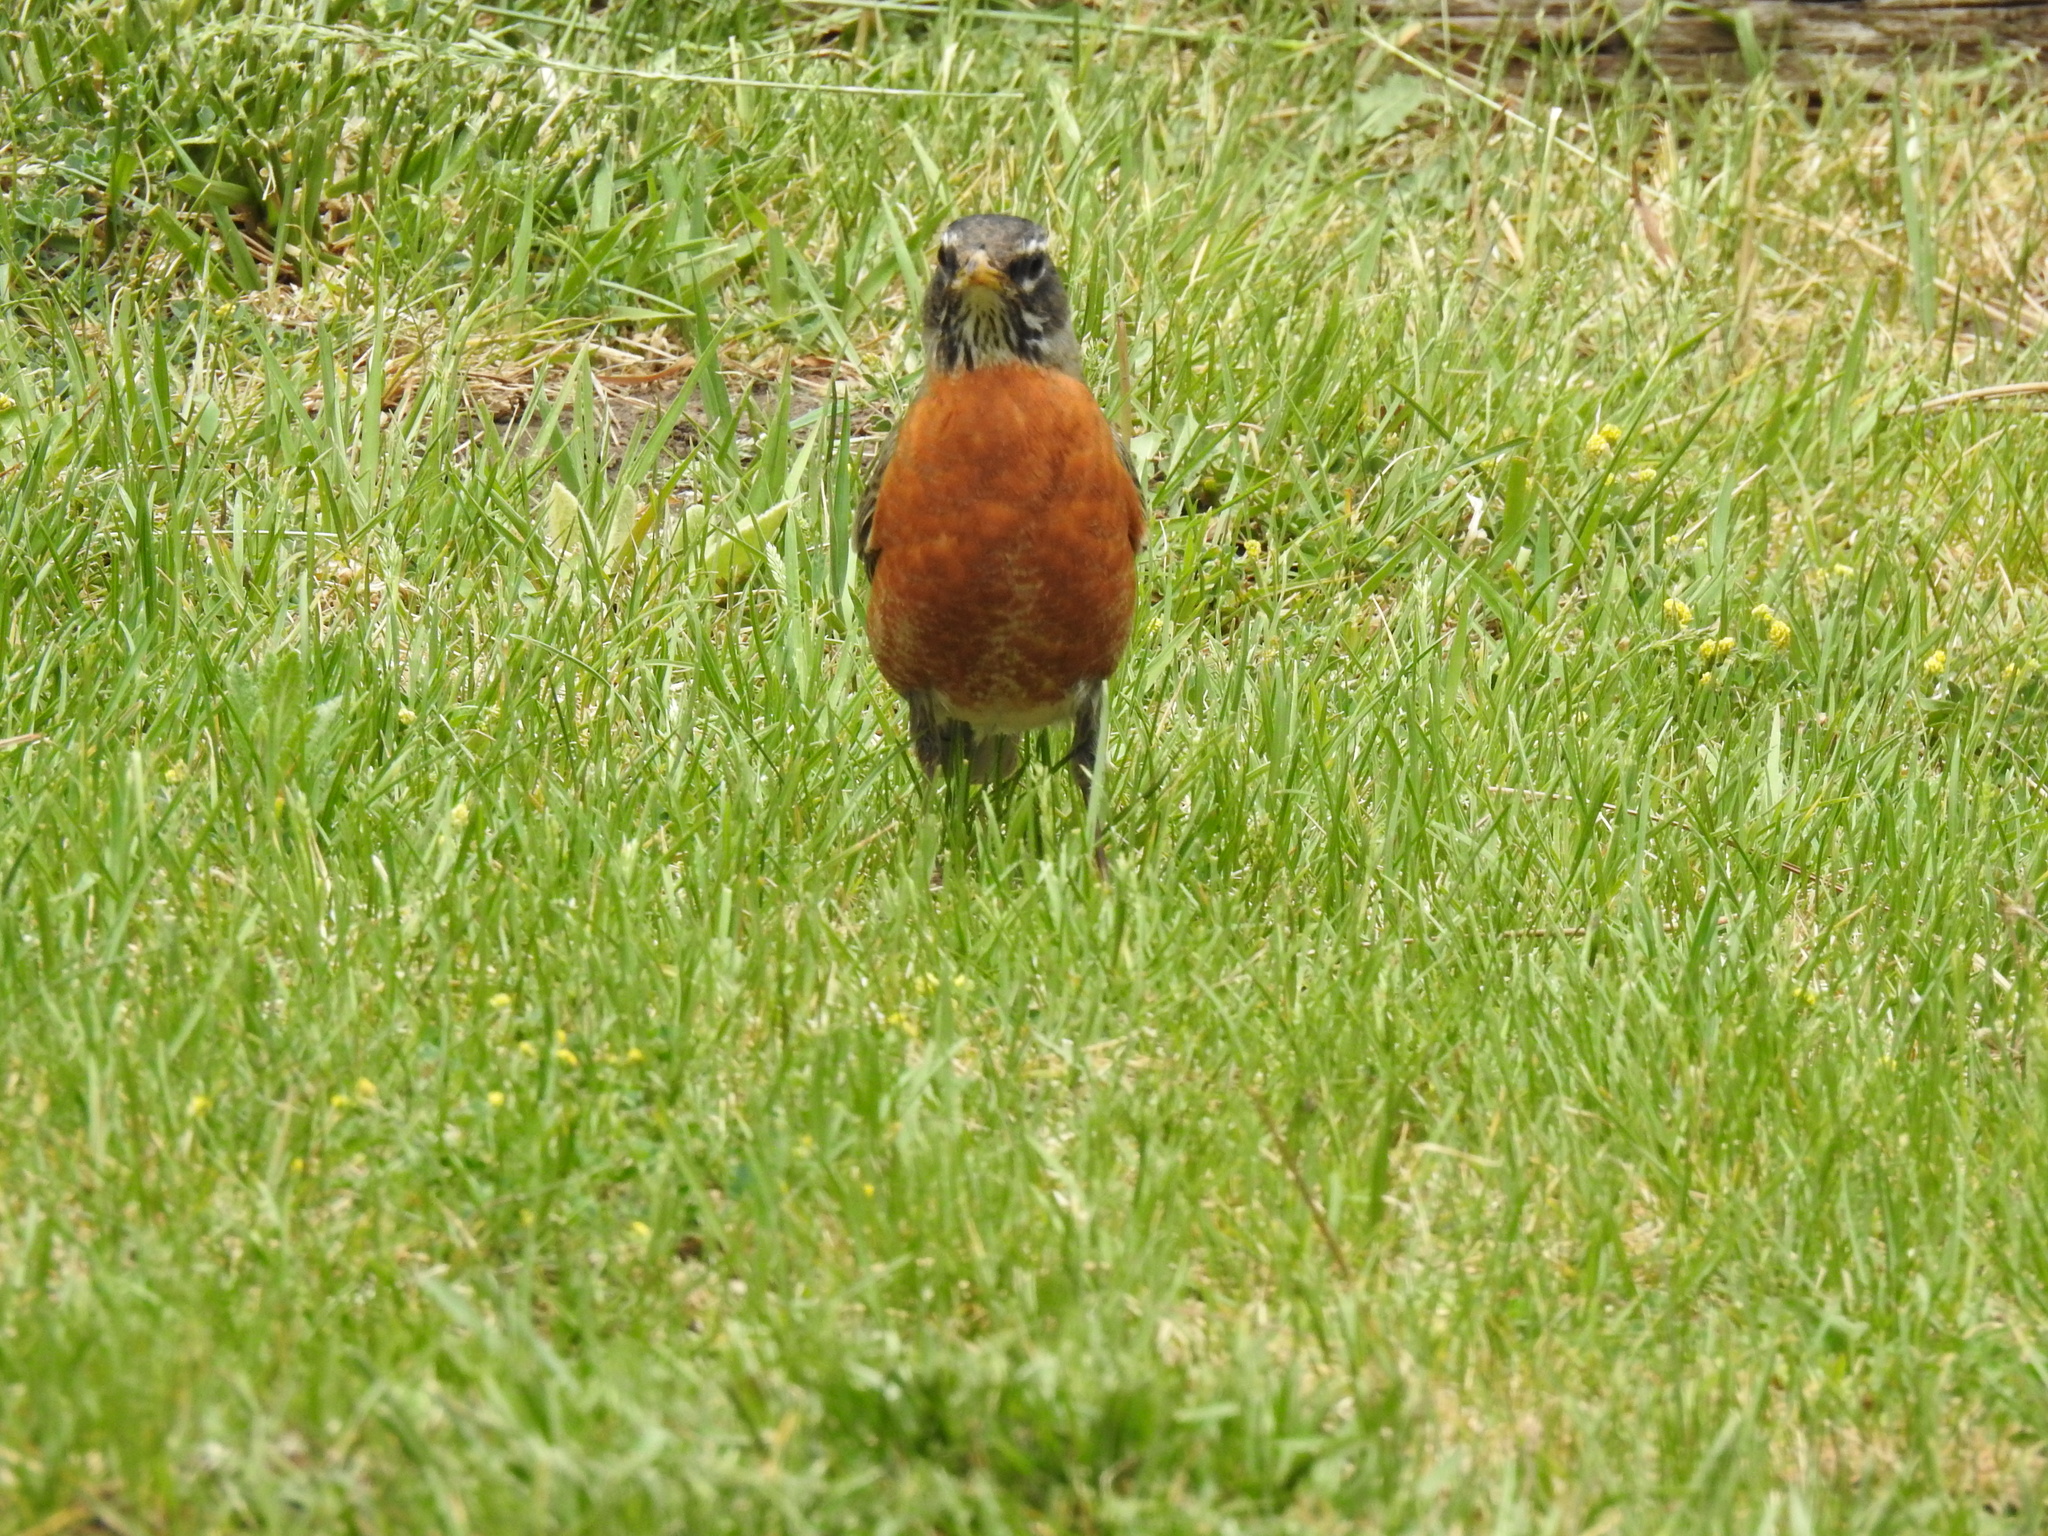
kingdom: Animalia
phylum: Chordata
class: Aves
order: Passeriformes
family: Turdidae
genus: Turdus
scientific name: Turdus migratorius
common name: American robin
